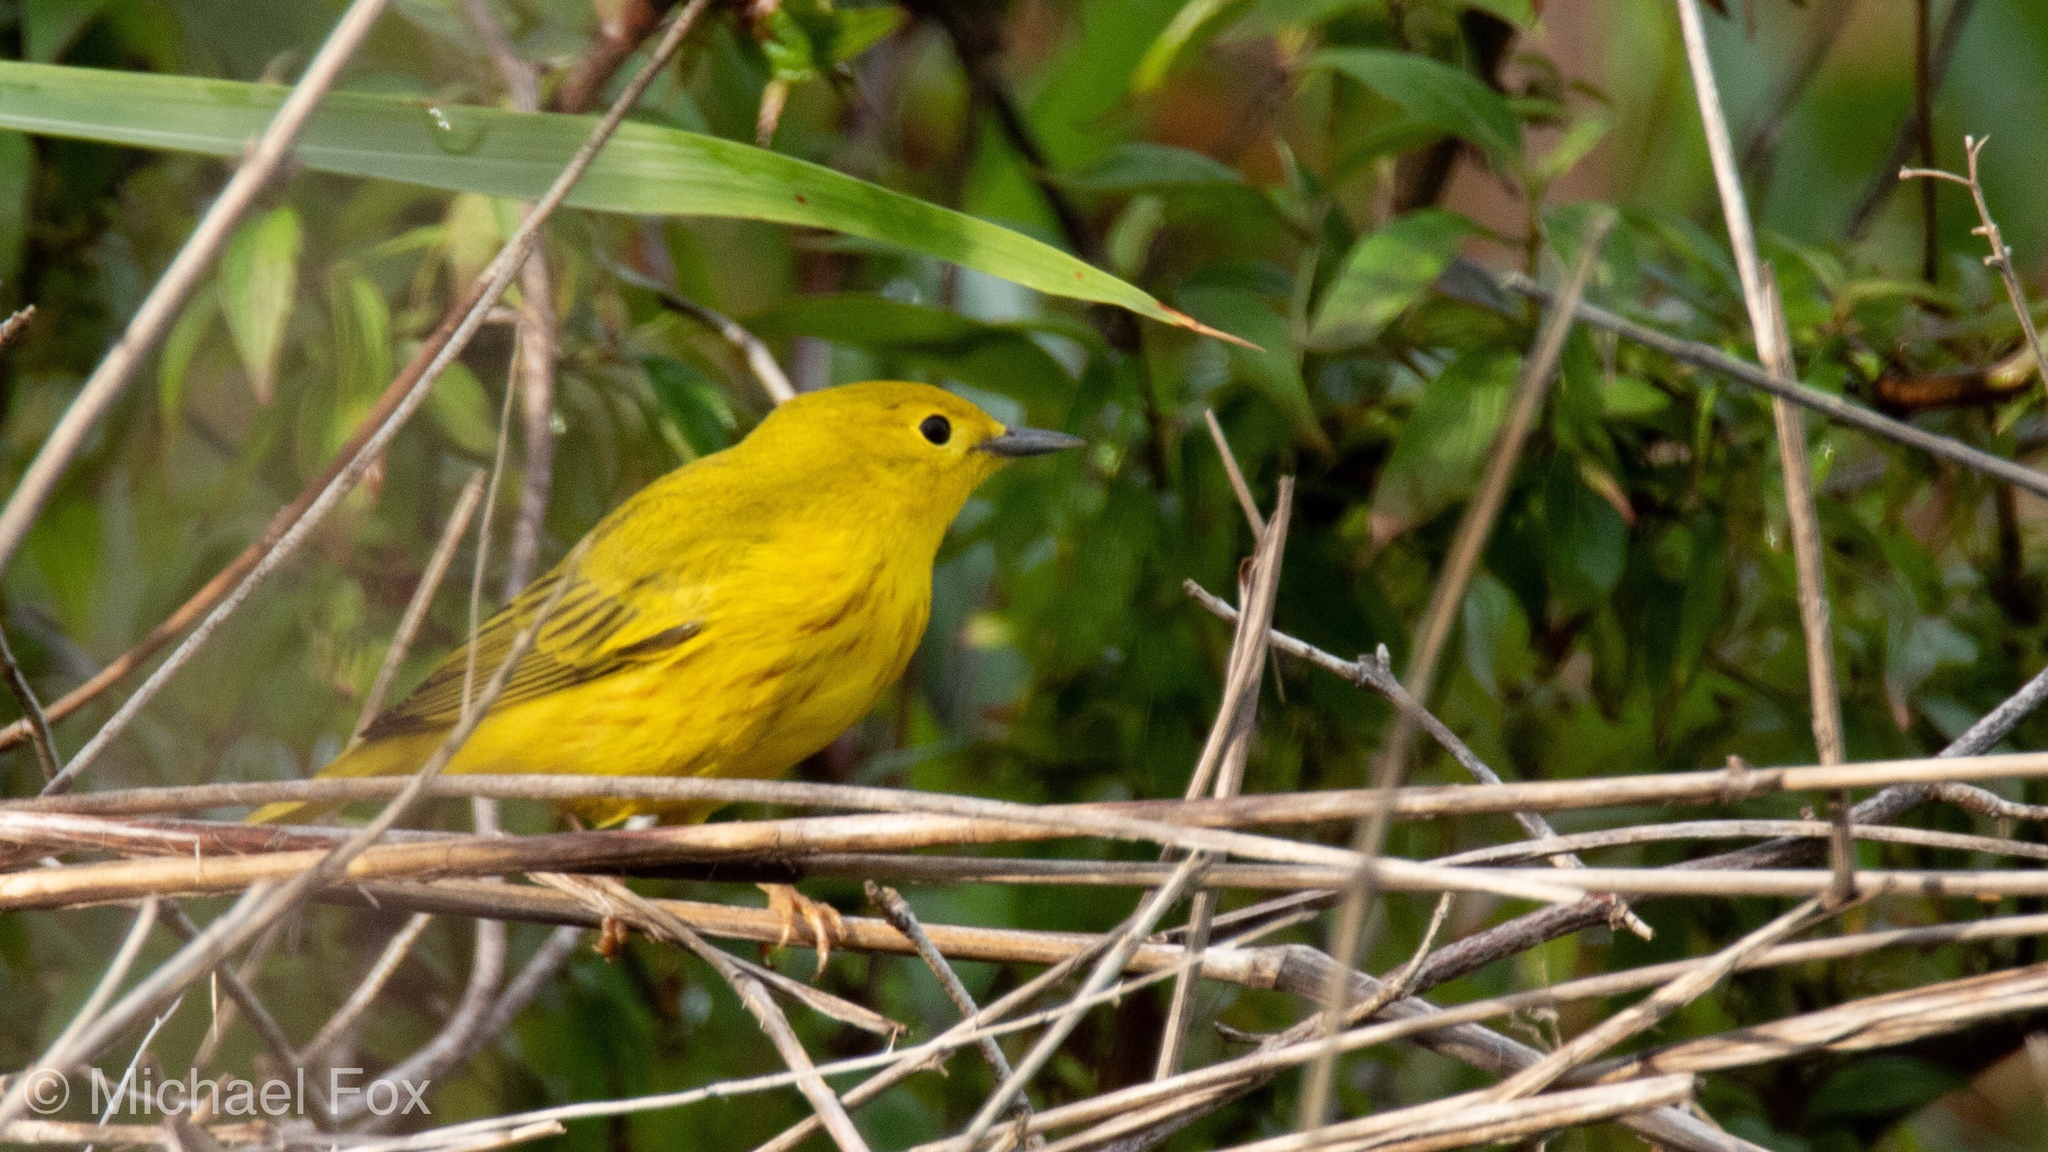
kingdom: Animalia
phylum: Chordata
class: Aves
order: Passeriformes
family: Parulidae
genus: Setophaga
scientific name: Setophaga petechia
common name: Yellow warbler
